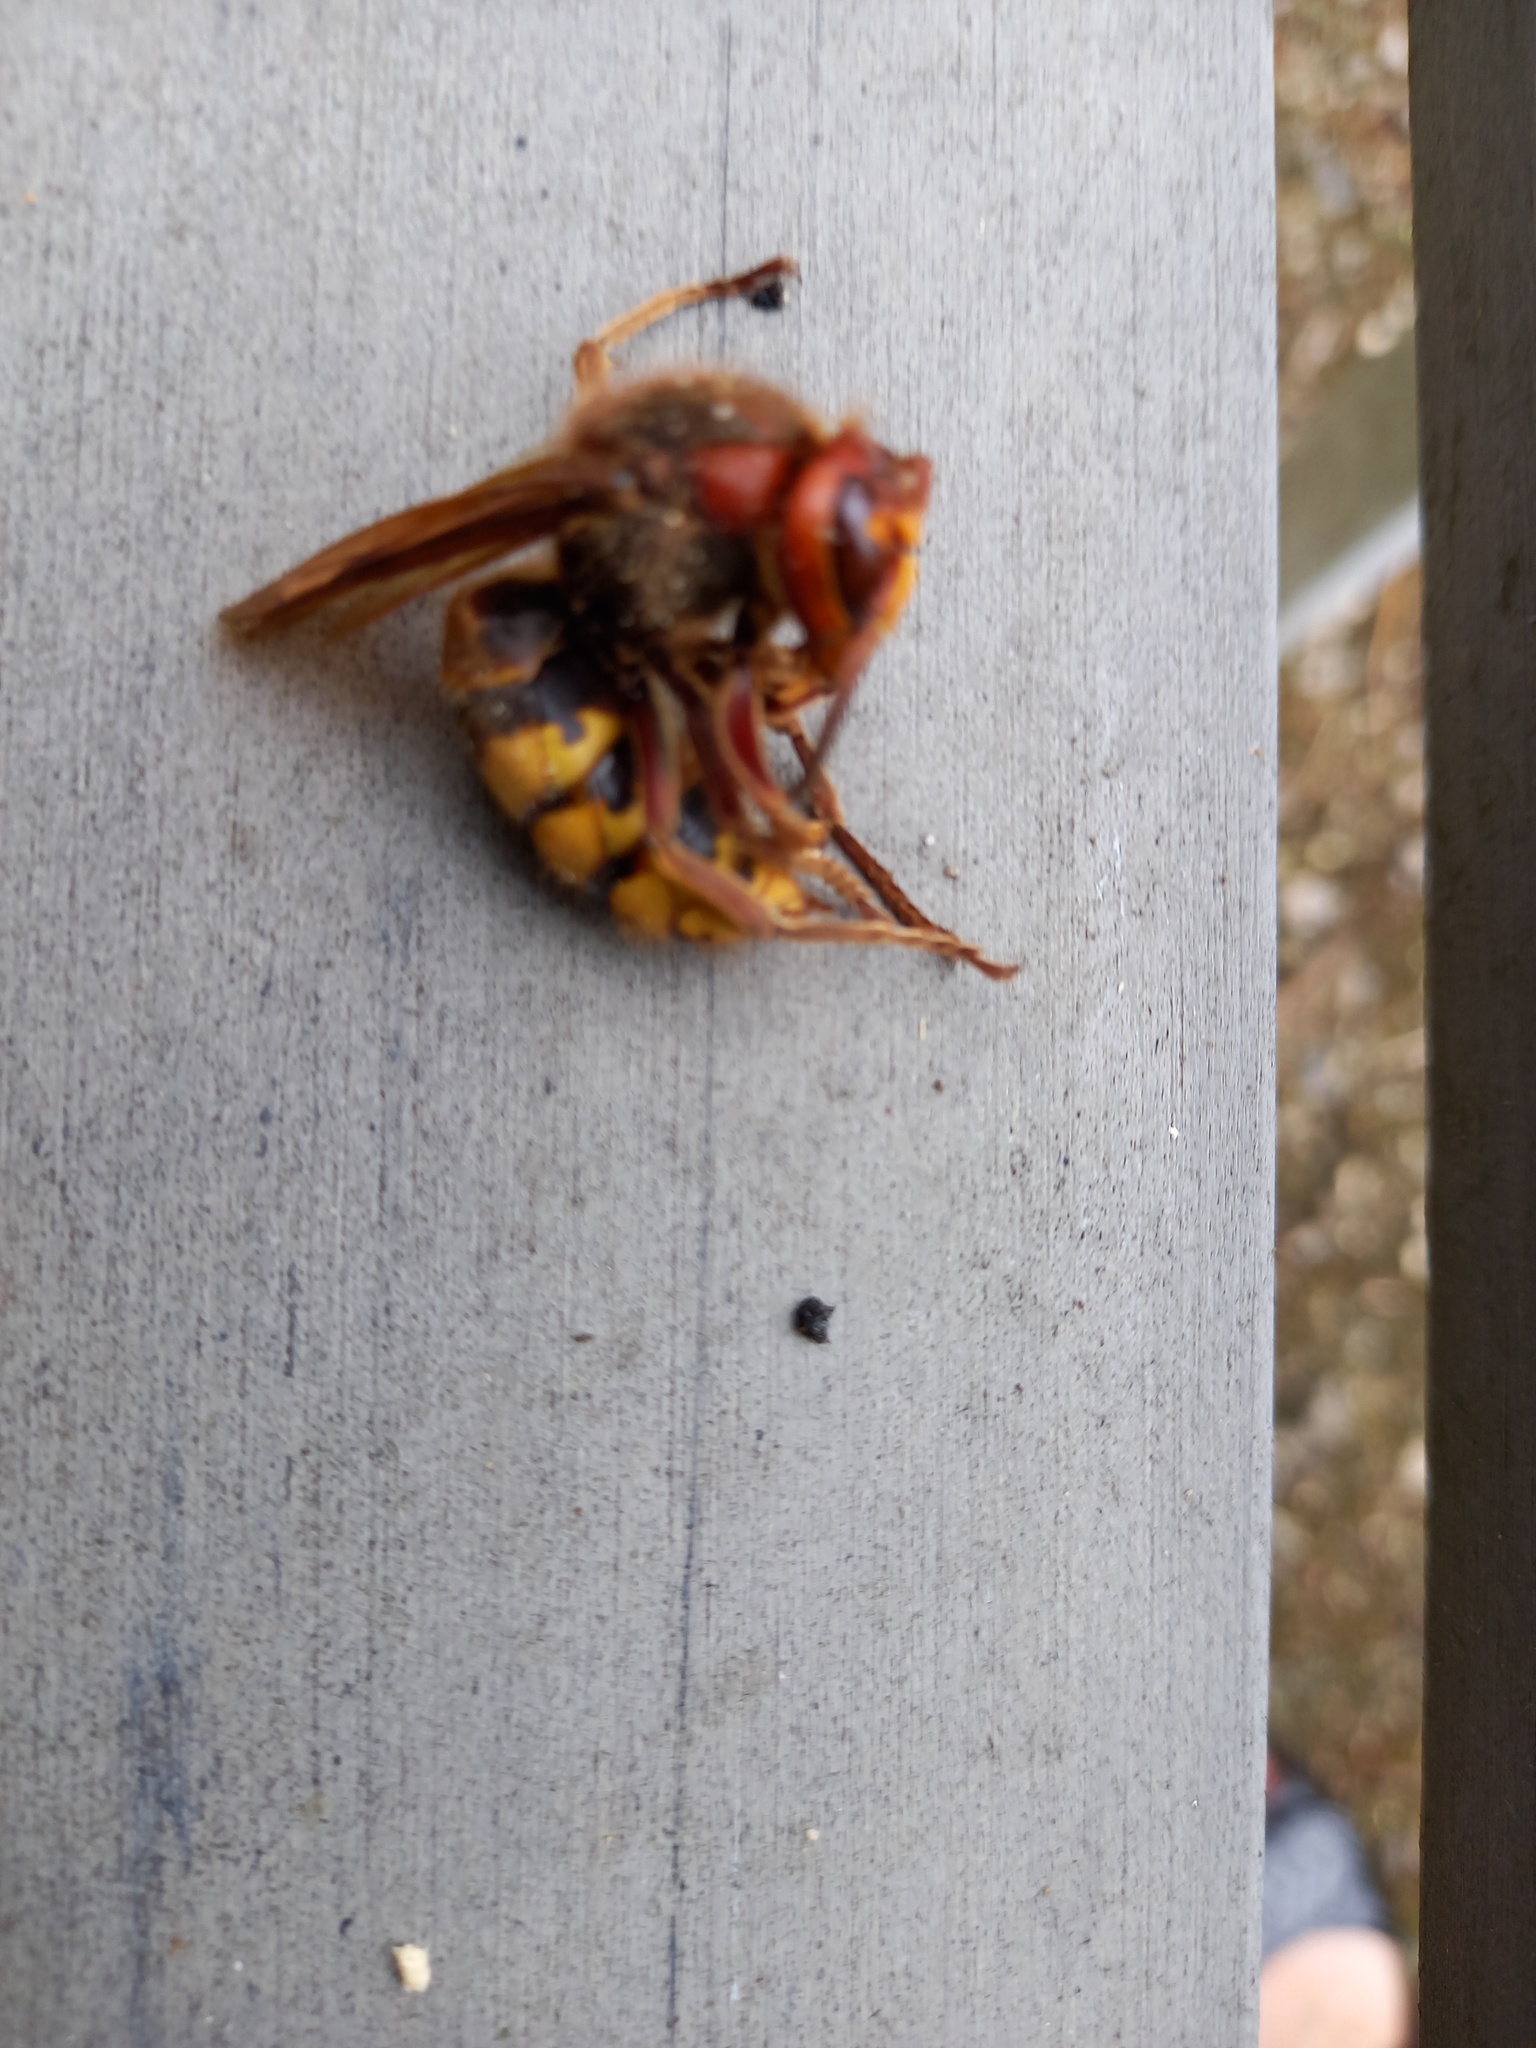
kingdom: Animalia
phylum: Arthropoda
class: Insecta
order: Hymenoptera
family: Vespidae
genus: Vespa
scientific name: Vespa crabro
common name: Hornet
